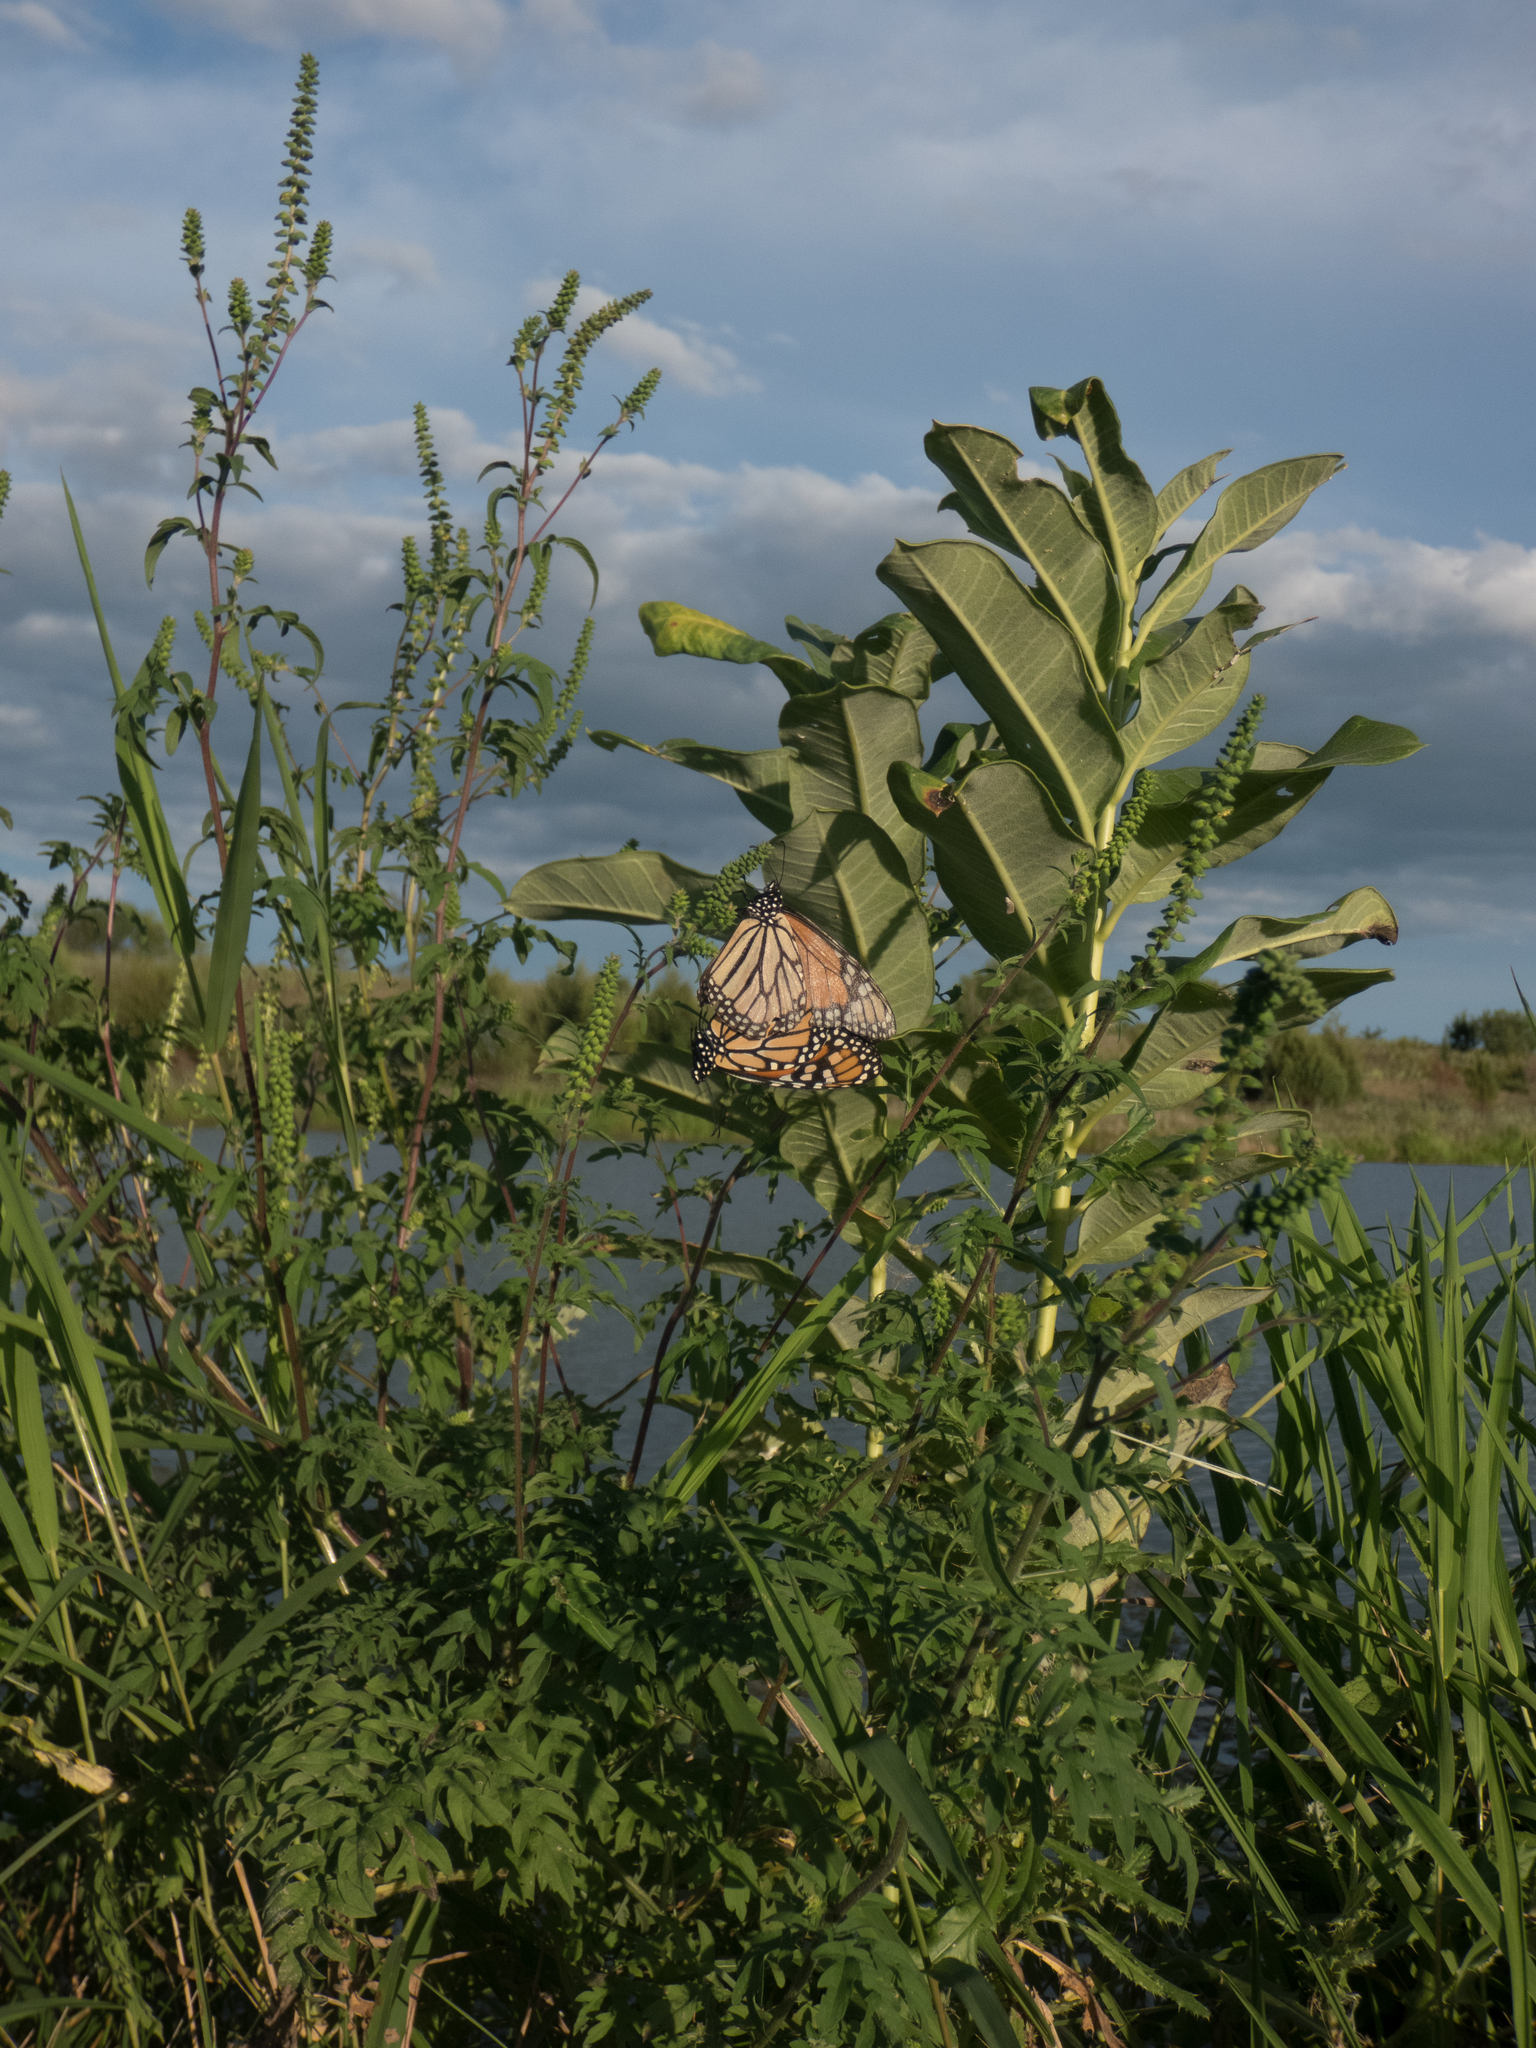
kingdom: Animalia
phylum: Arthropoda
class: Insecta
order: Lepidoptera
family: Nymphalidae
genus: Danaus
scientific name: Danaus plexippus
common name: Monarch
